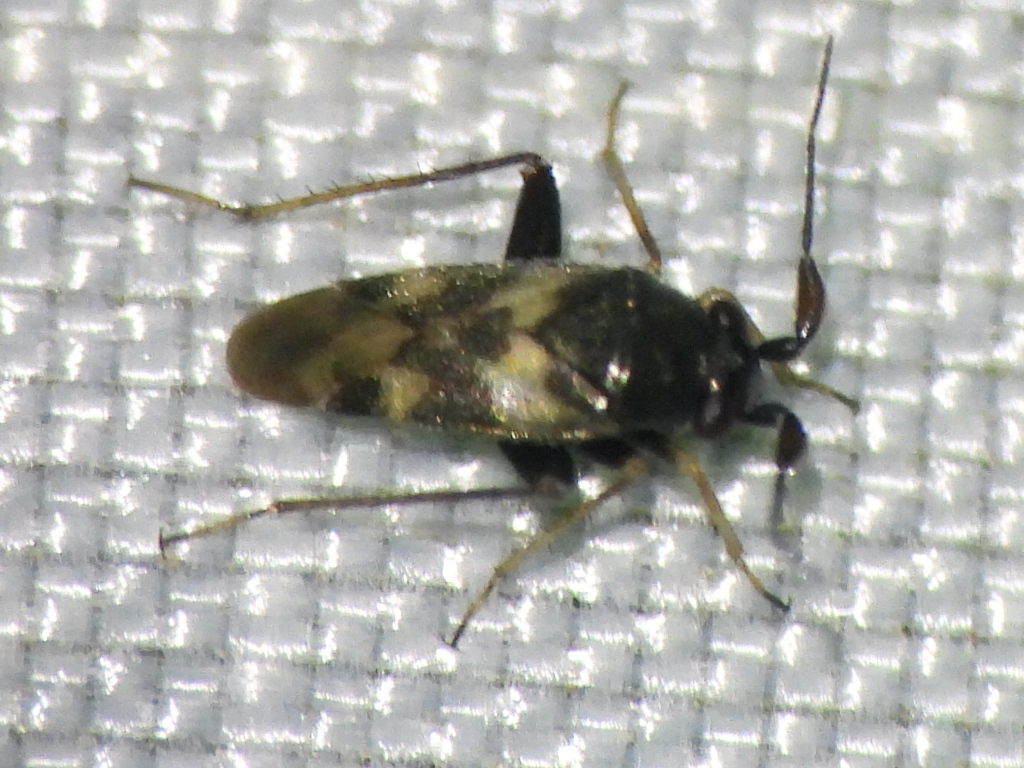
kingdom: Animalia
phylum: Arthropoda
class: Insecta
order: Hemiptera
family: Miridae
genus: Spanagonicus
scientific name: Spanagonicus albofasciatus
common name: Whitemarked fleahopper
